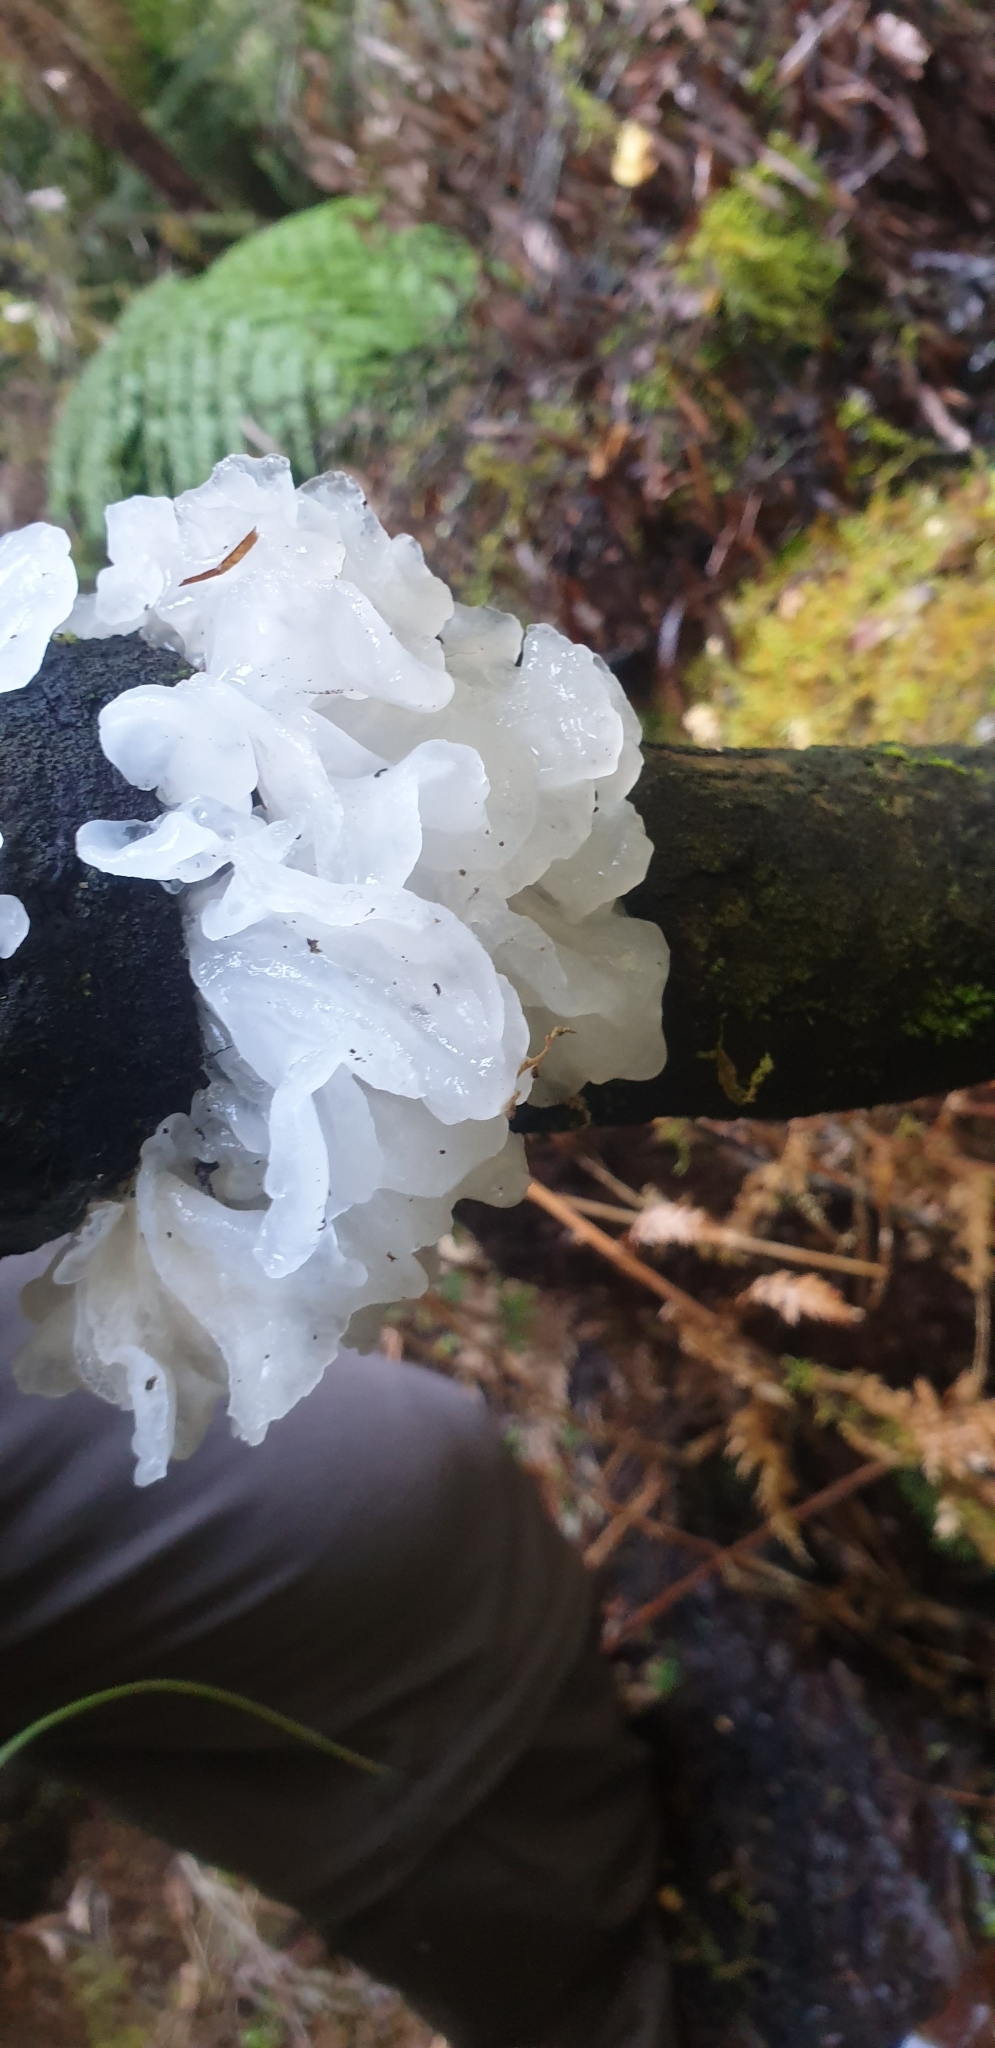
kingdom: Fungi
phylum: Basidiomycota
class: Tremellomycetes
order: Tremellales
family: Tremellaceae
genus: Tremella
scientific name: Tremella fuciformis
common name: Snow fungus
